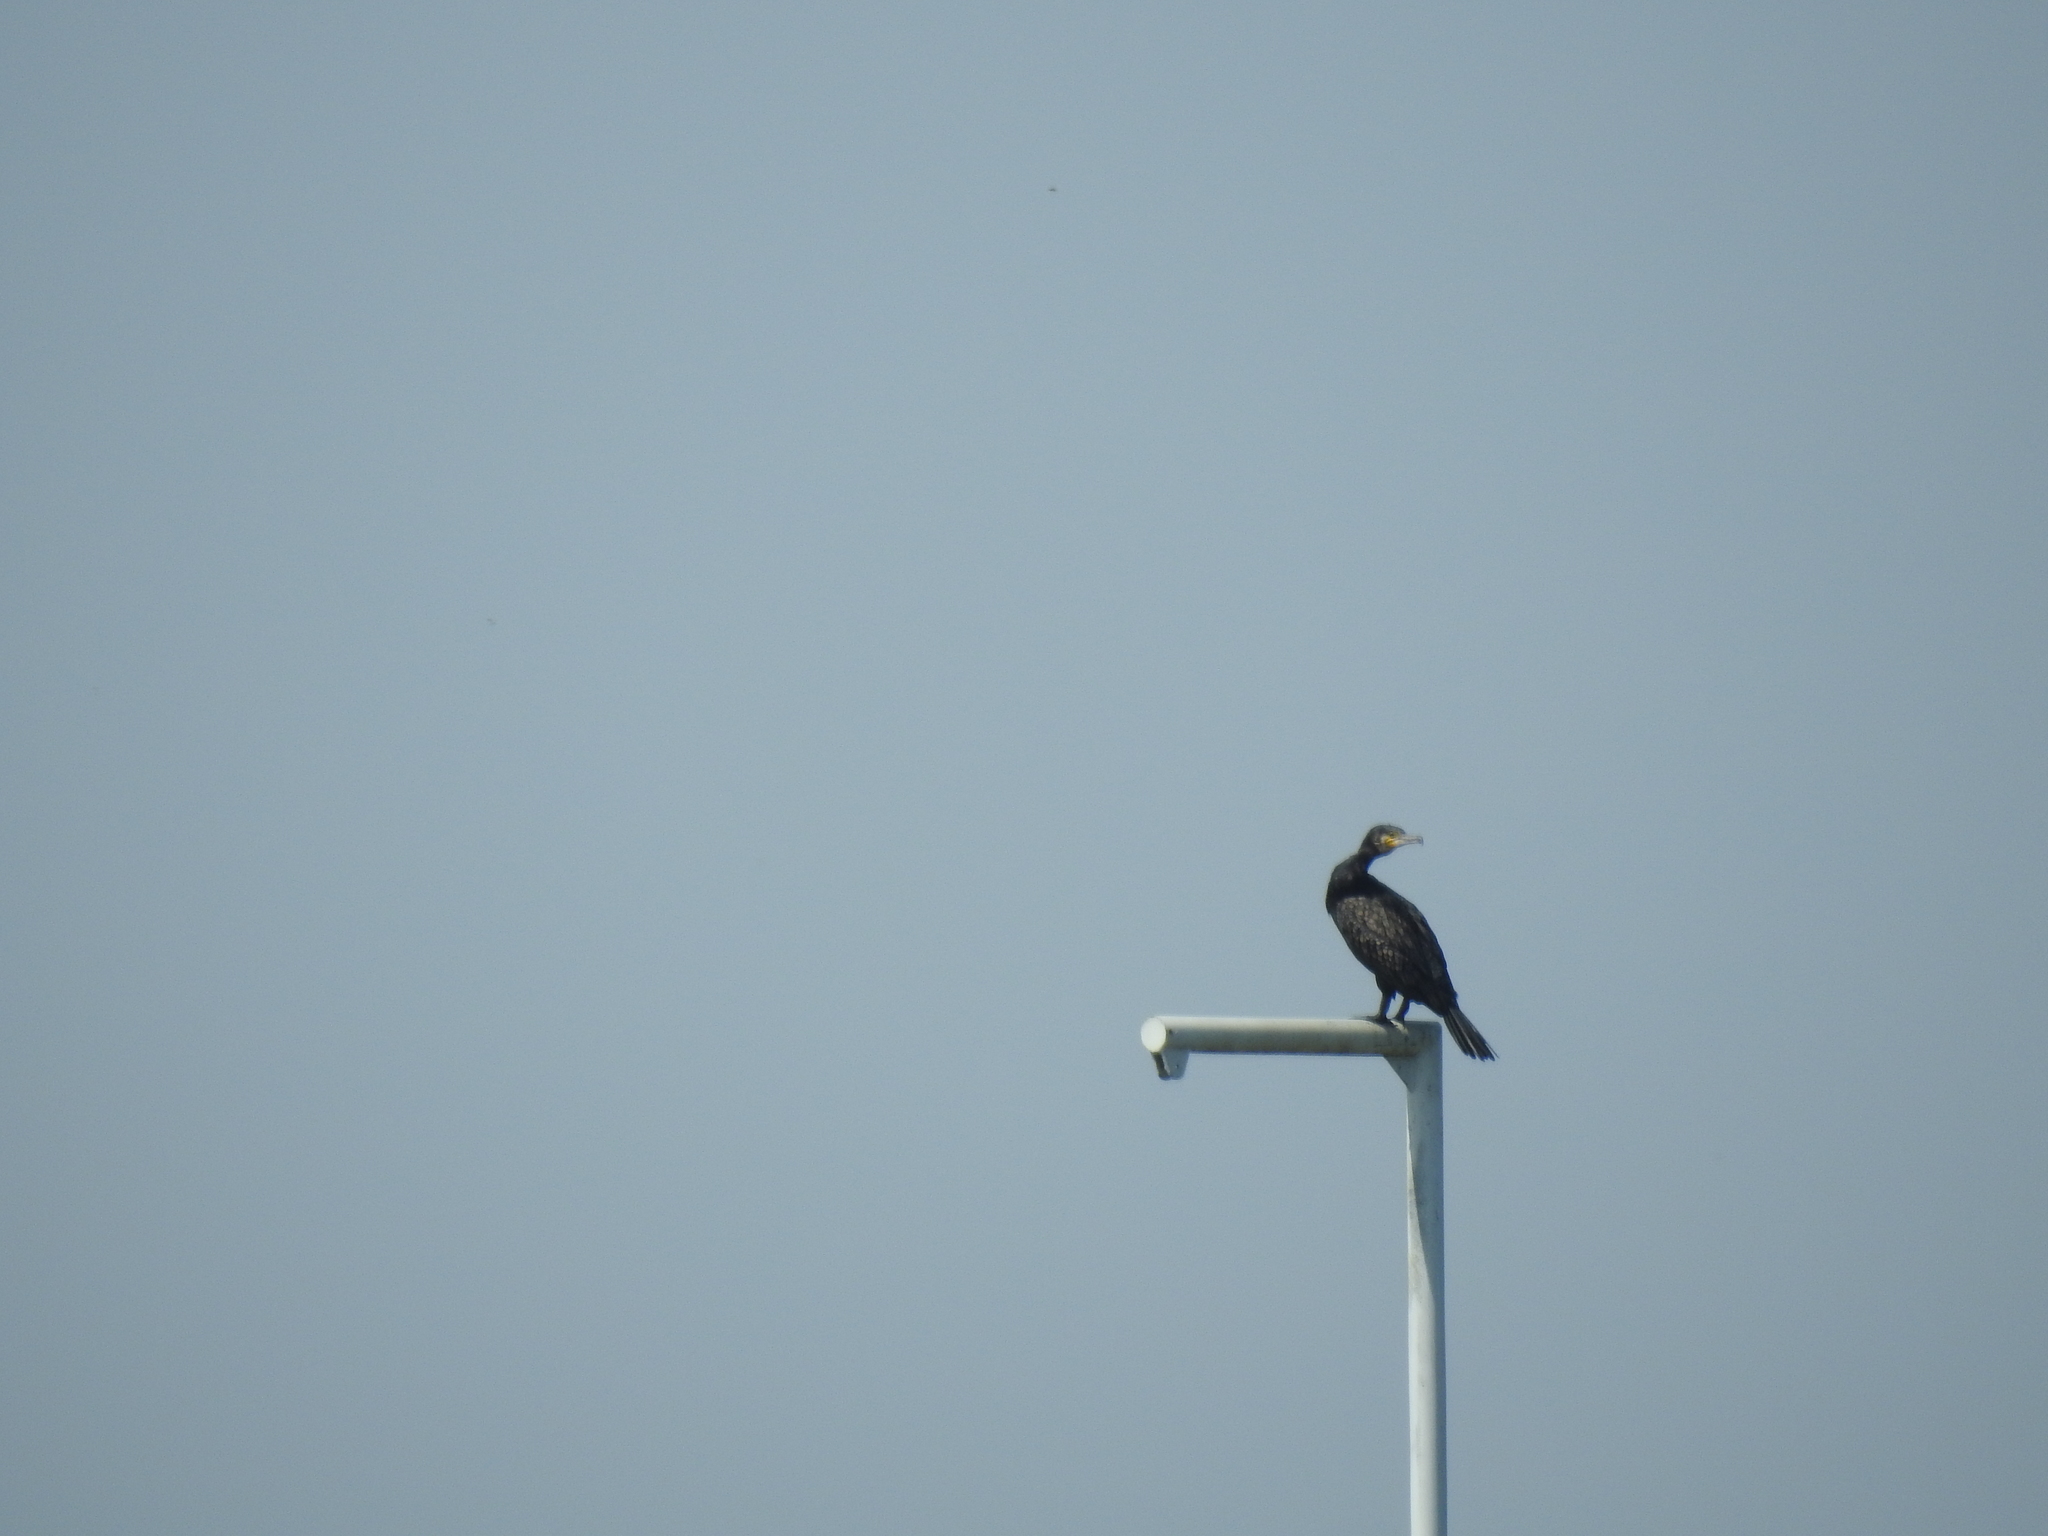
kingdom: Animalia
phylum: Chordata
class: Aves
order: Suliformes
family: Phalacrocoracidae
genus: Phalacrocorax
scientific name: Phalacrocorax carbo
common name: Great cormorant
